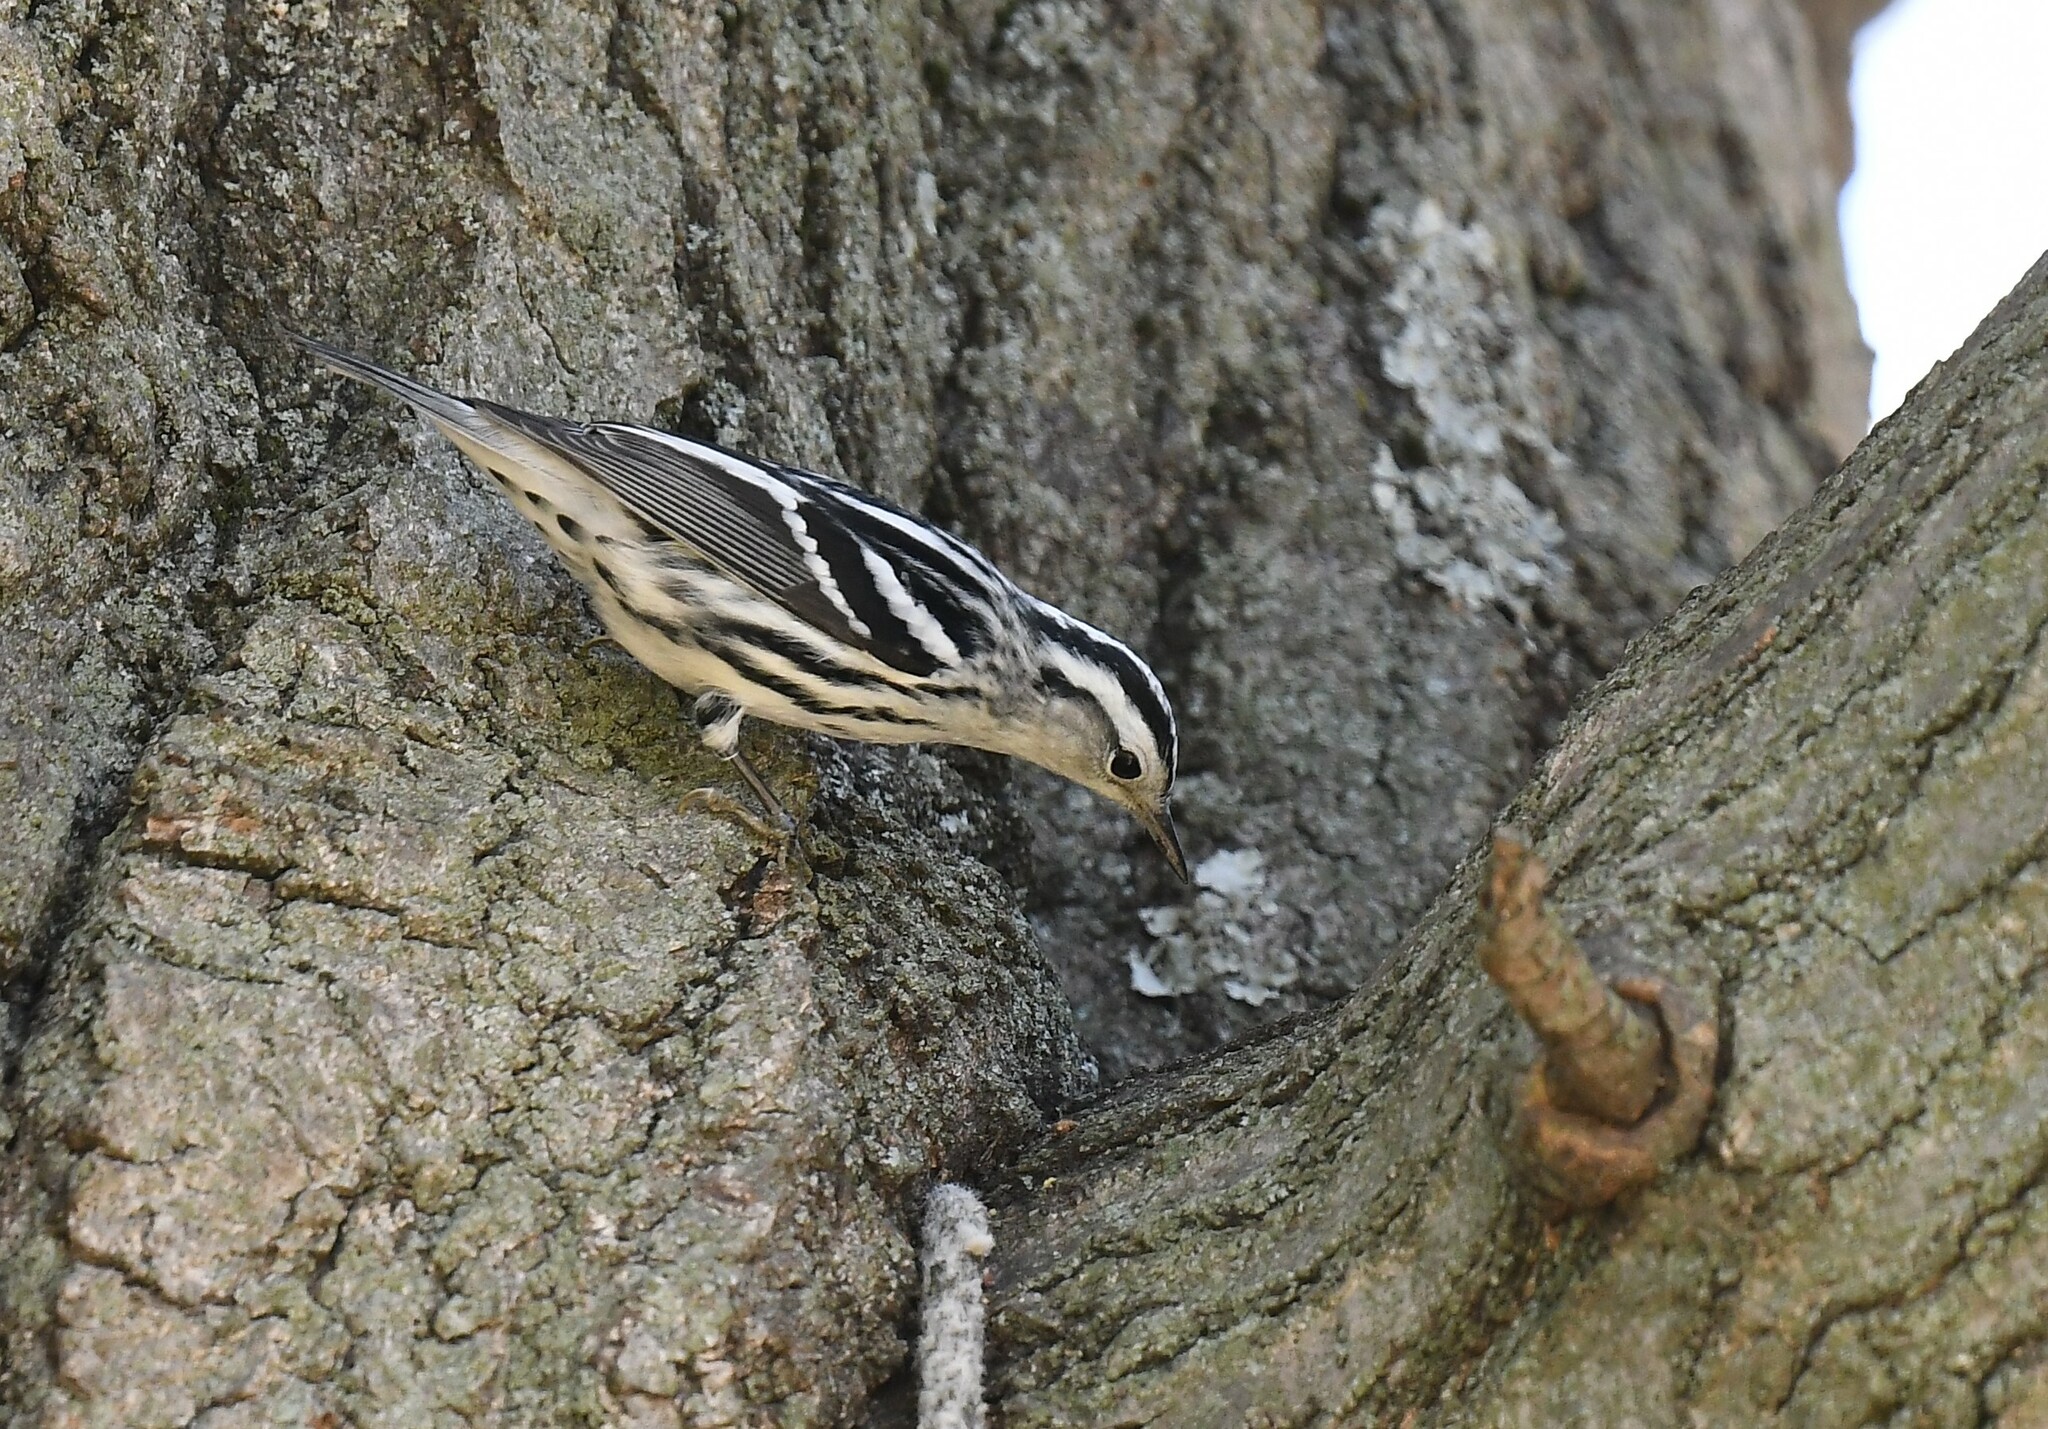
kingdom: Animalia
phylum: Chordata
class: Aves
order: Passeriformes
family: Parulidae
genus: Mniotilta
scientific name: Mniotilta varia
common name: Black-and-white warbler
